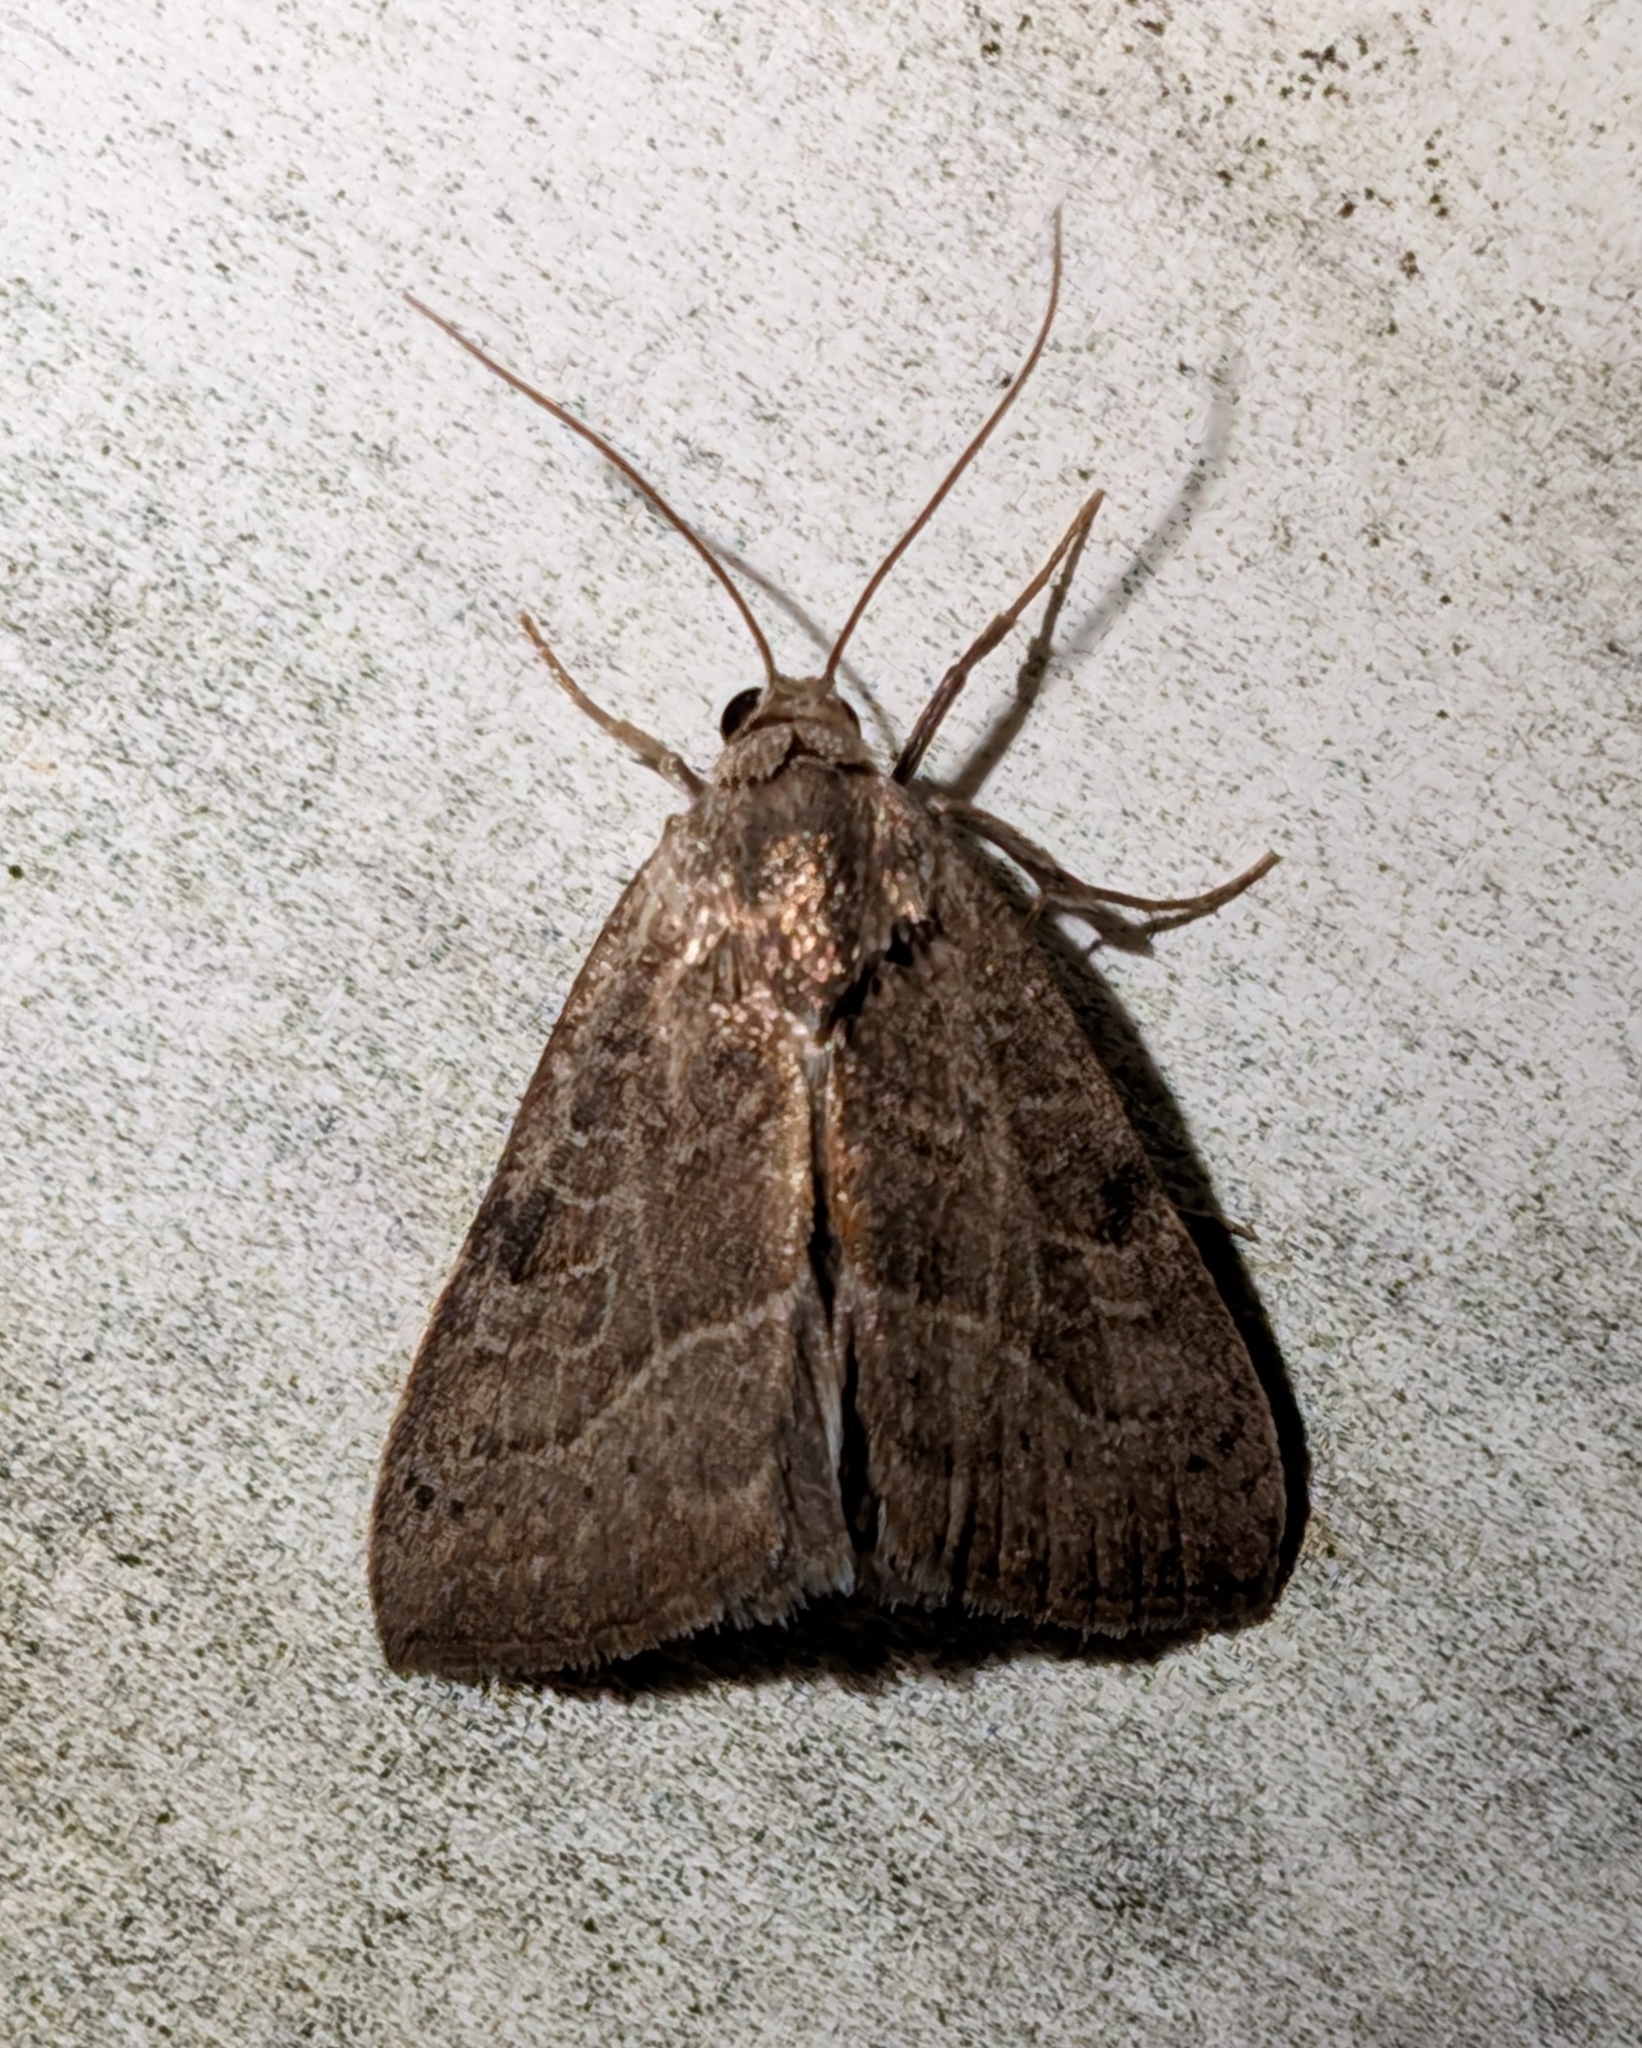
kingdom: Animalia
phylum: Arthropoda
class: Insecta
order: Lepidoptera
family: Noctuidae
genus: Galgula
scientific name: Galgula partita
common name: Wedgeling
